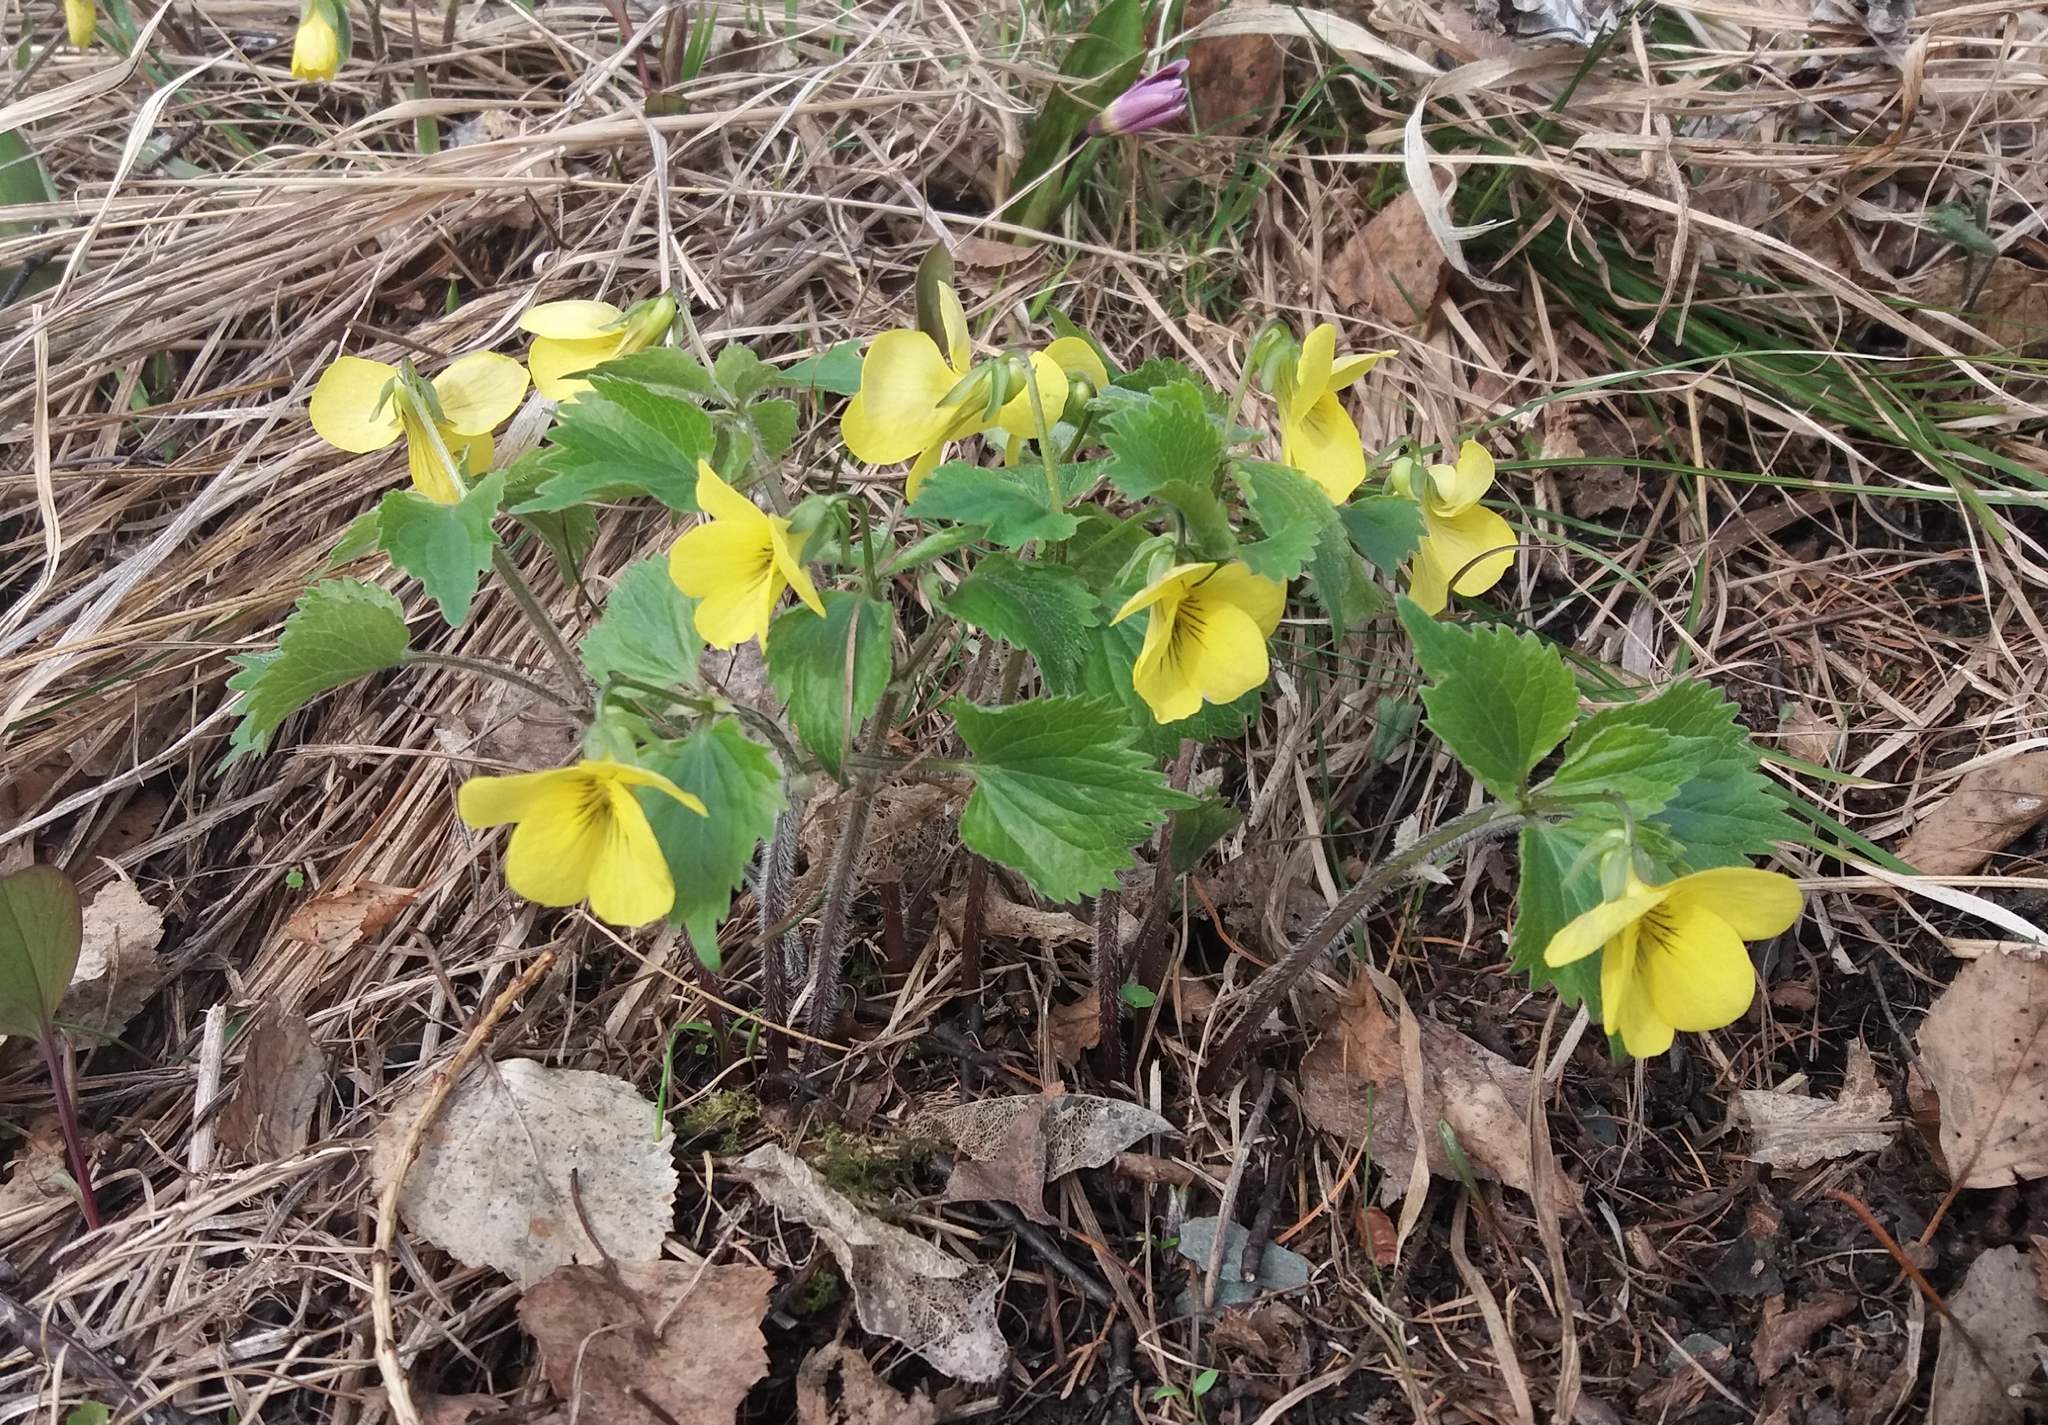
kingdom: Plantae
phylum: Tracheophyta
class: Magnoliopsida
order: Malpighiales
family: Violaceae
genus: Viola
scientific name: Viola uniflora
